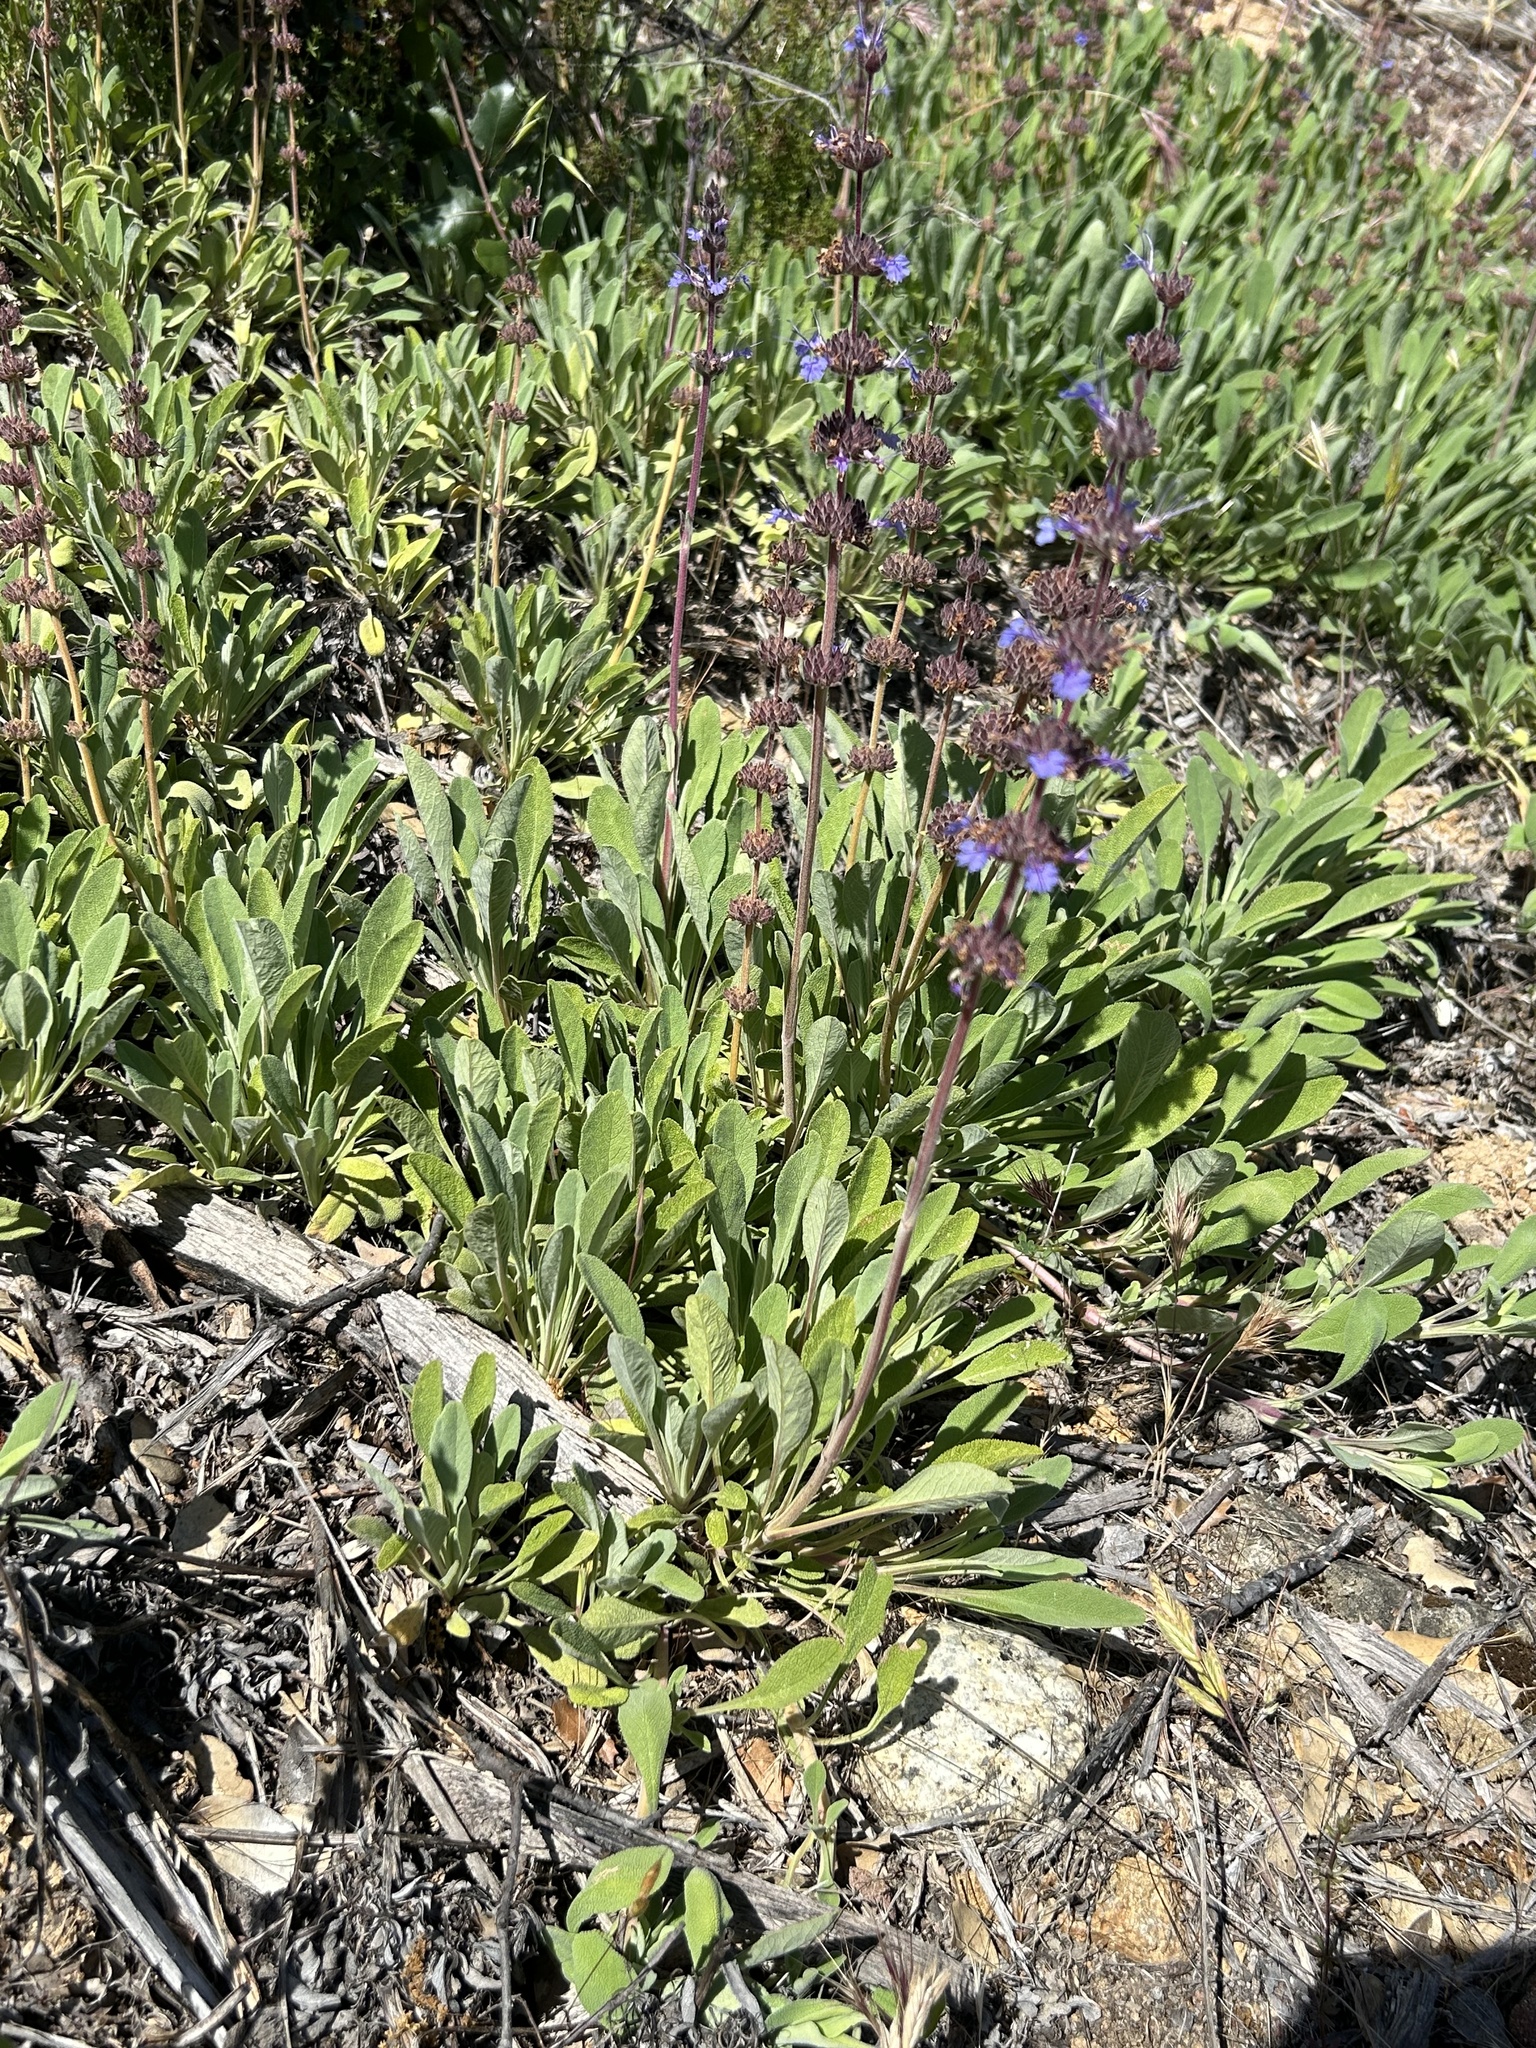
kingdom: Plantae
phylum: Tracheophyta
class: Magnoliopsida
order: Lamiales
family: Lamiaceae
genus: Salvia
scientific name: Salvia sonomensis
